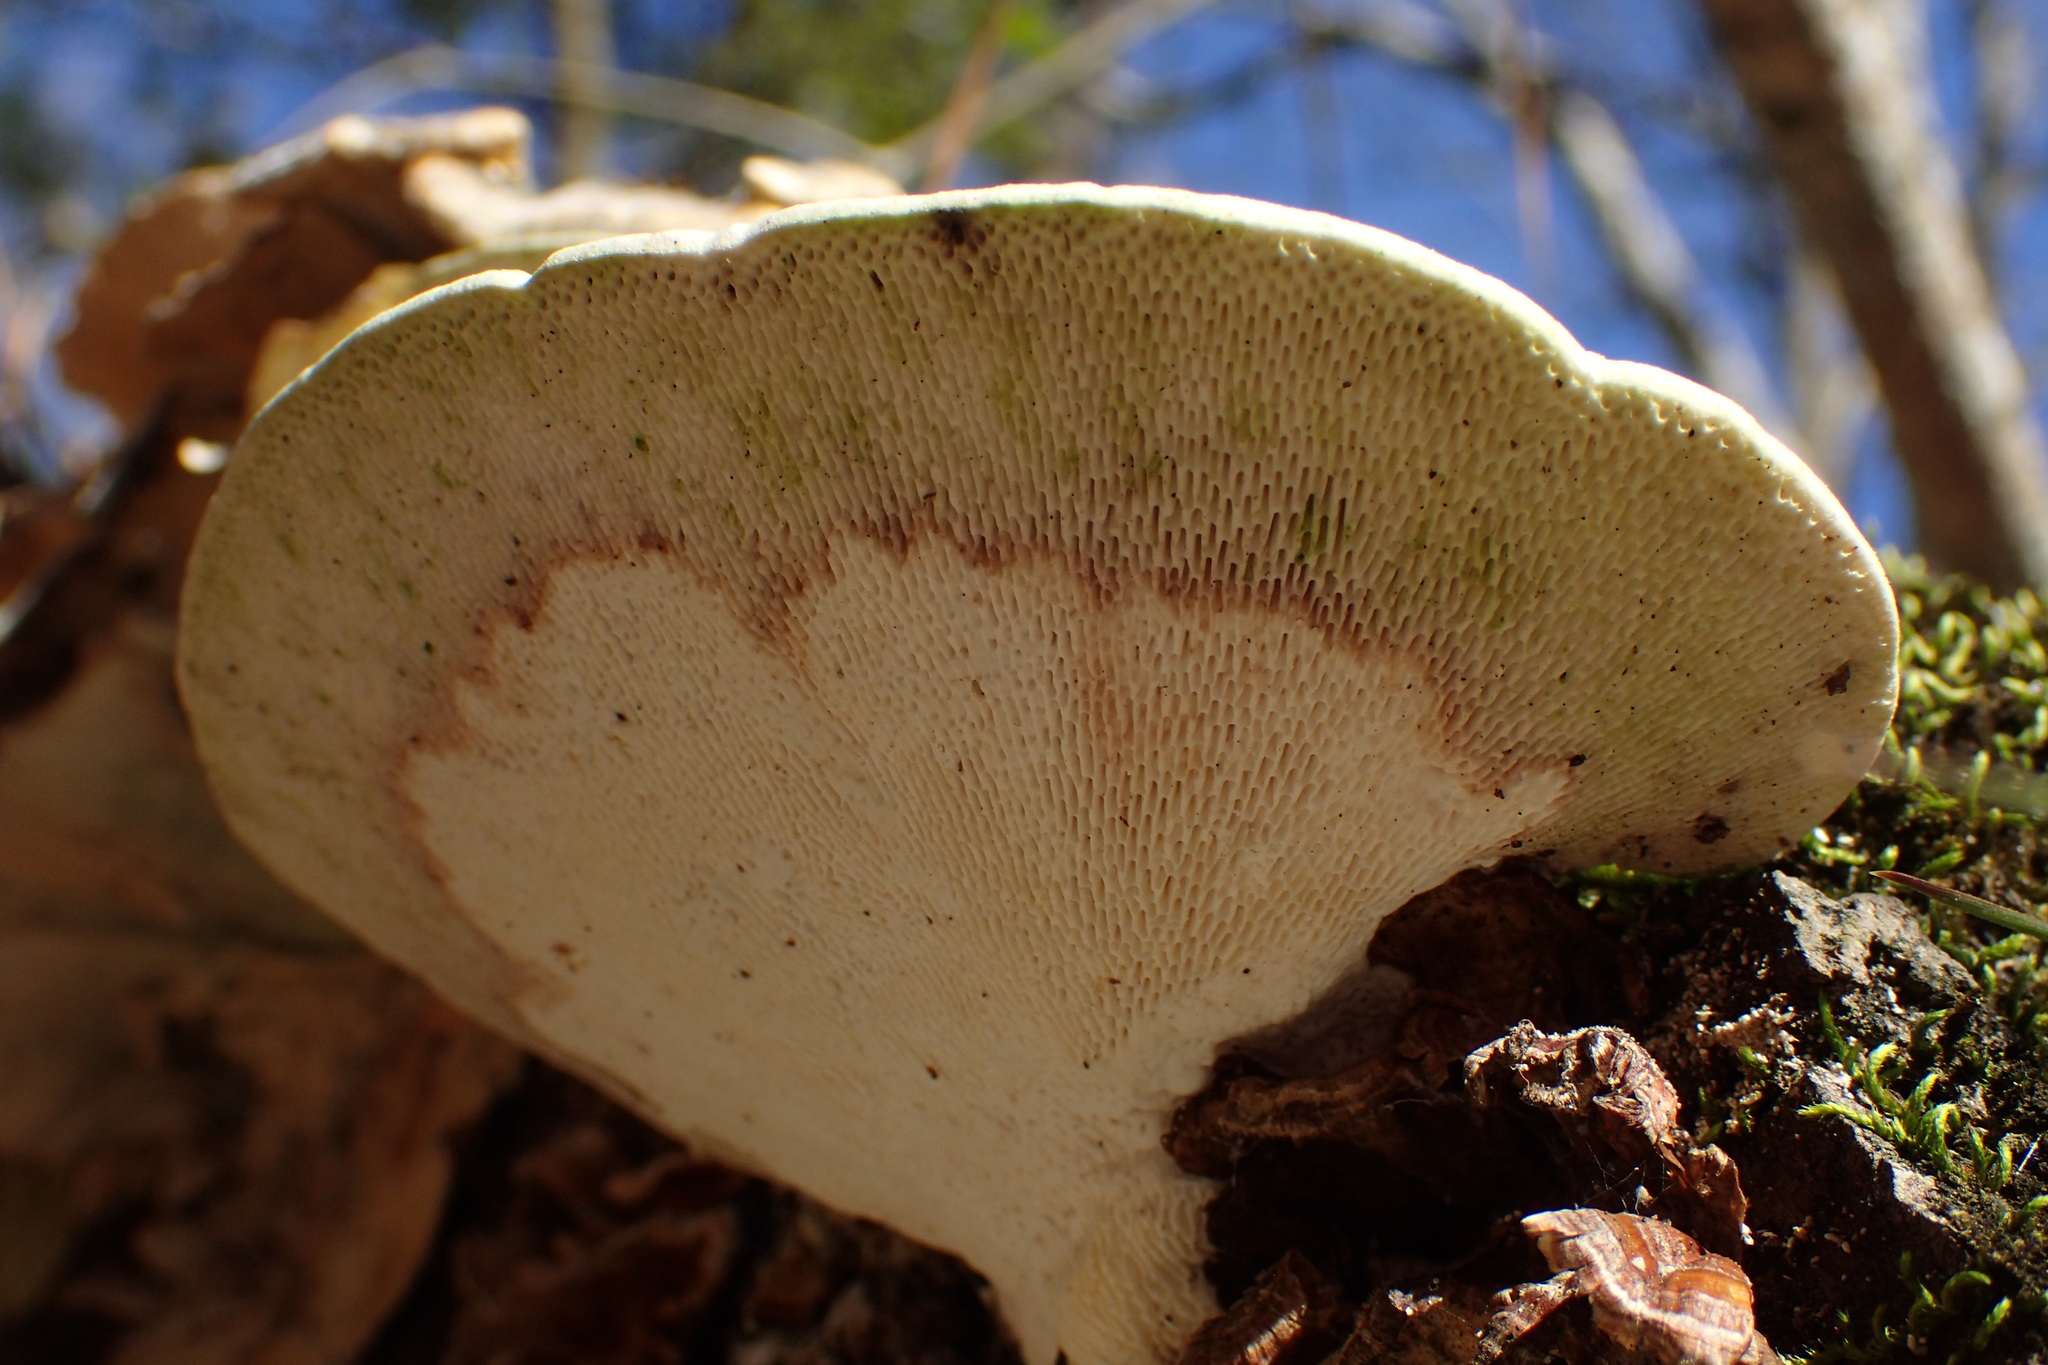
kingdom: Fungi
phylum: Basidiomycota
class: Agaricomycetes
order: Polyporales
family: Polyporaceae
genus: Trametes
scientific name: Trametes gibbosa
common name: Lumpy bracket
